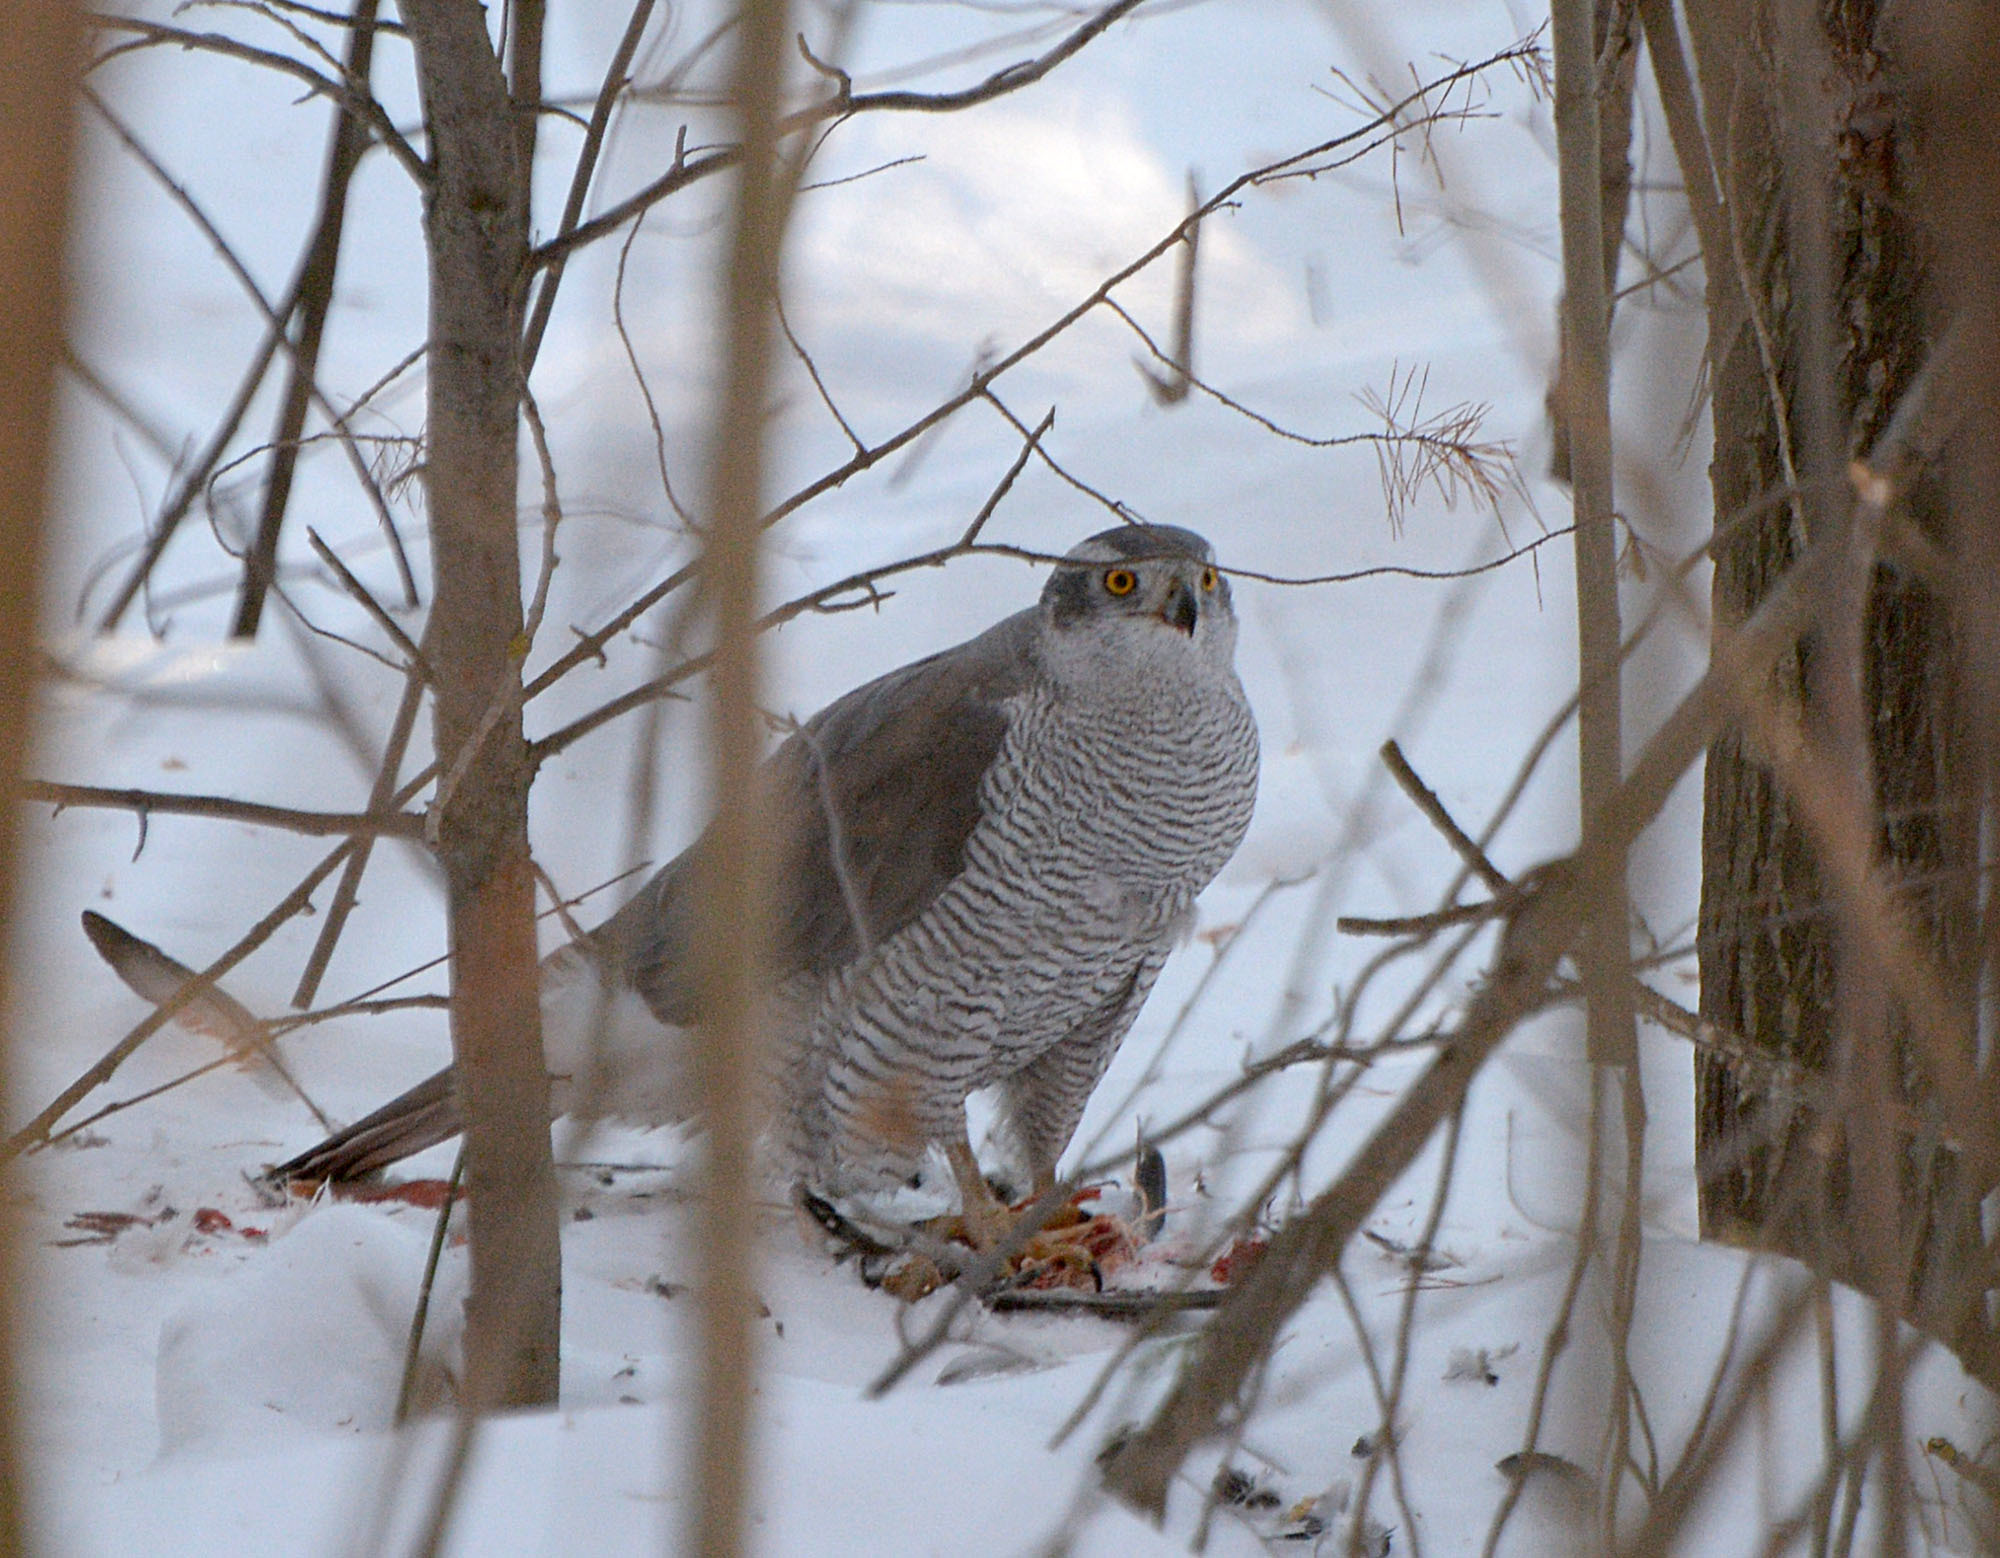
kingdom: Animalia
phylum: Chordata
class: Aves
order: Accipitriformes
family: Accipitridae
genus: Accipiter
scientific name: Accipiter gentilis
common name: Northern goshawk
